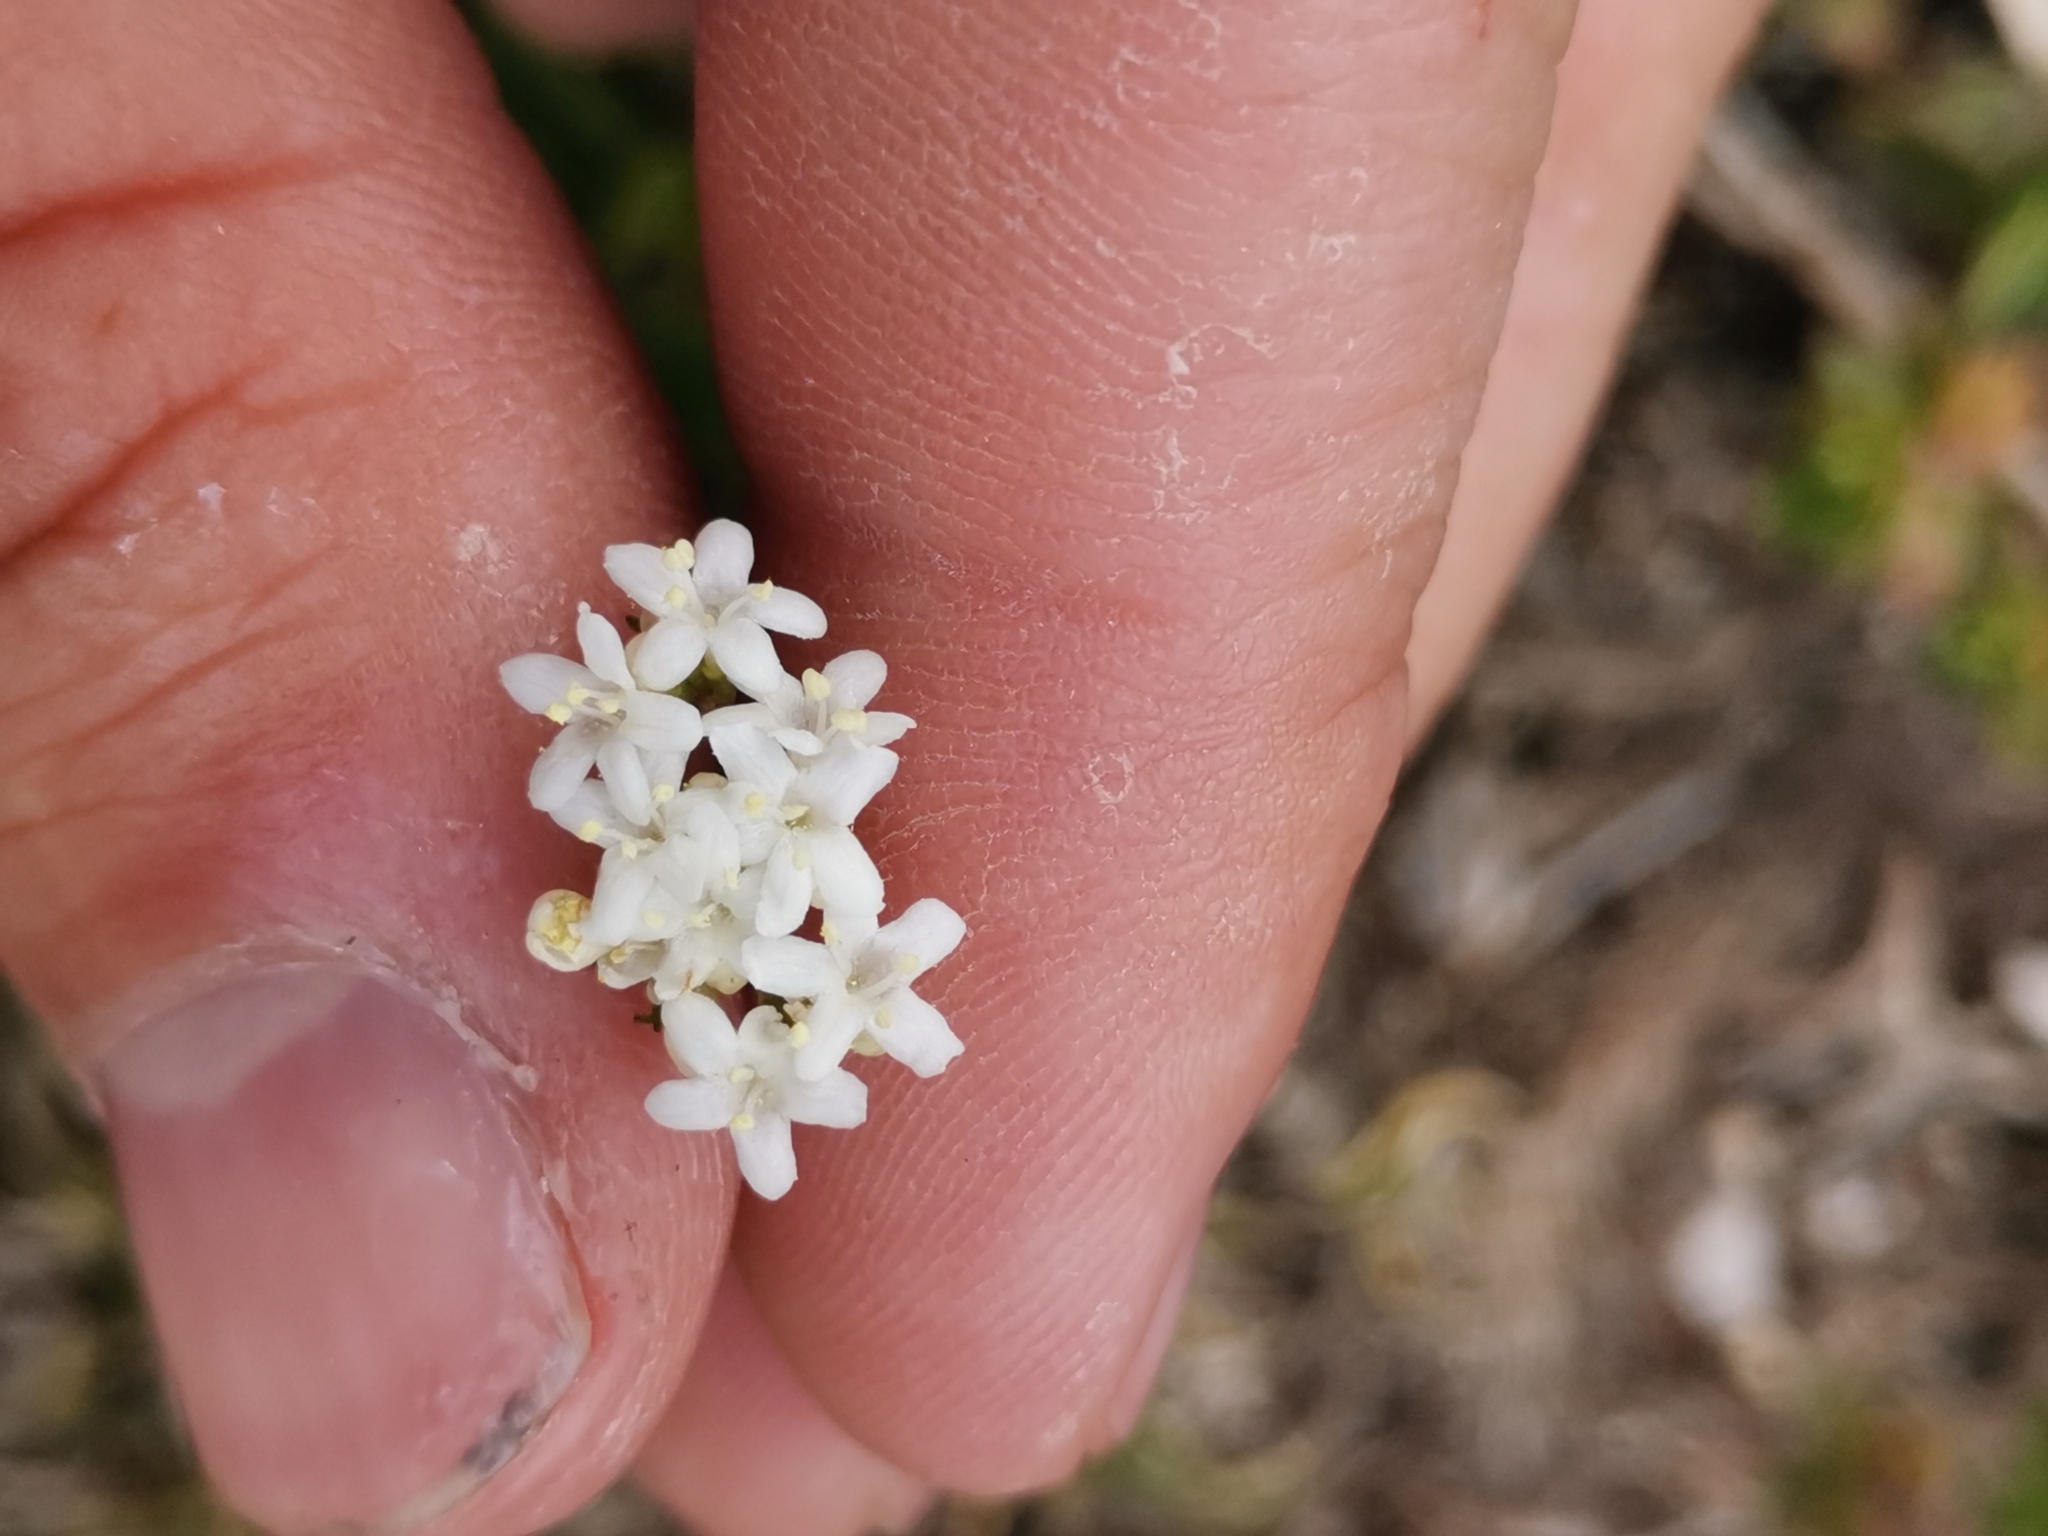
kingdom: Plantae
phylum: Tracheophyta
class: Magnoliopsida
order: Dipsacales
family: Caprifoliaceae
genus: Valeriana
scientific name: Valeriana saxatilis
